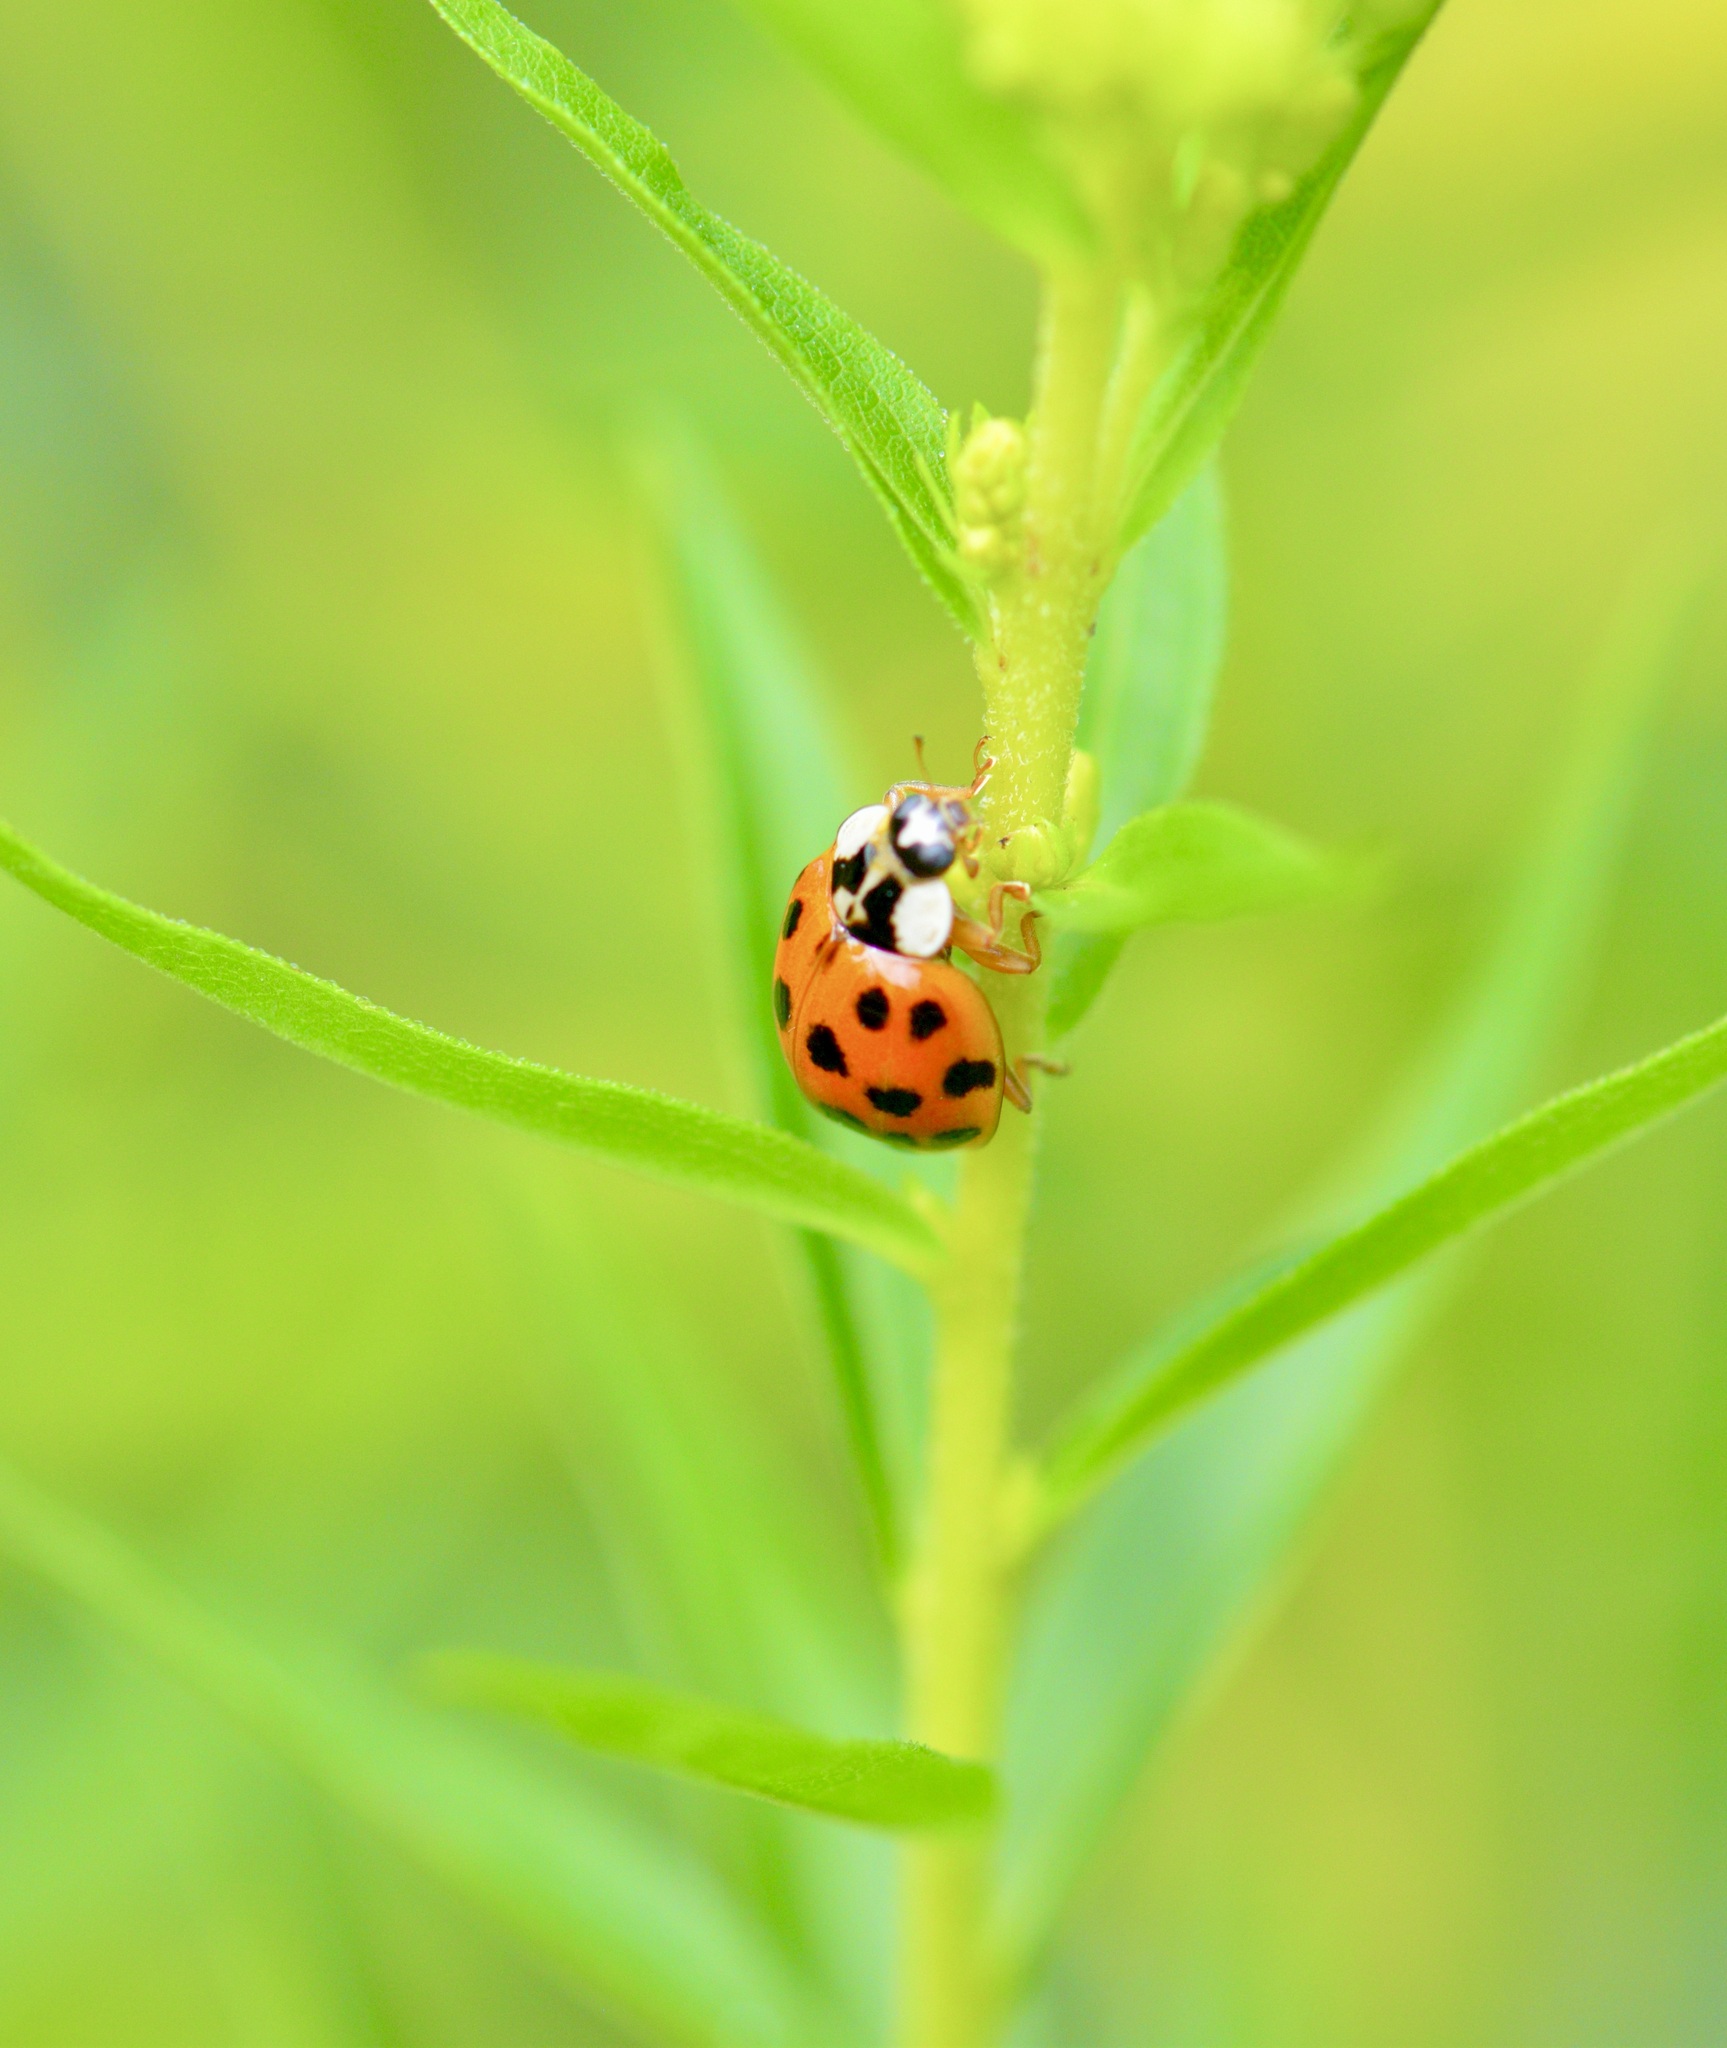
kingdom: Animalia
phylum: Arthropoda
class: Insecta
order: Coleoptera
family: Coccinellidae
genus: Harmonia
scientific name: Harmonia axyridis
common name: Harlequin ladybird
